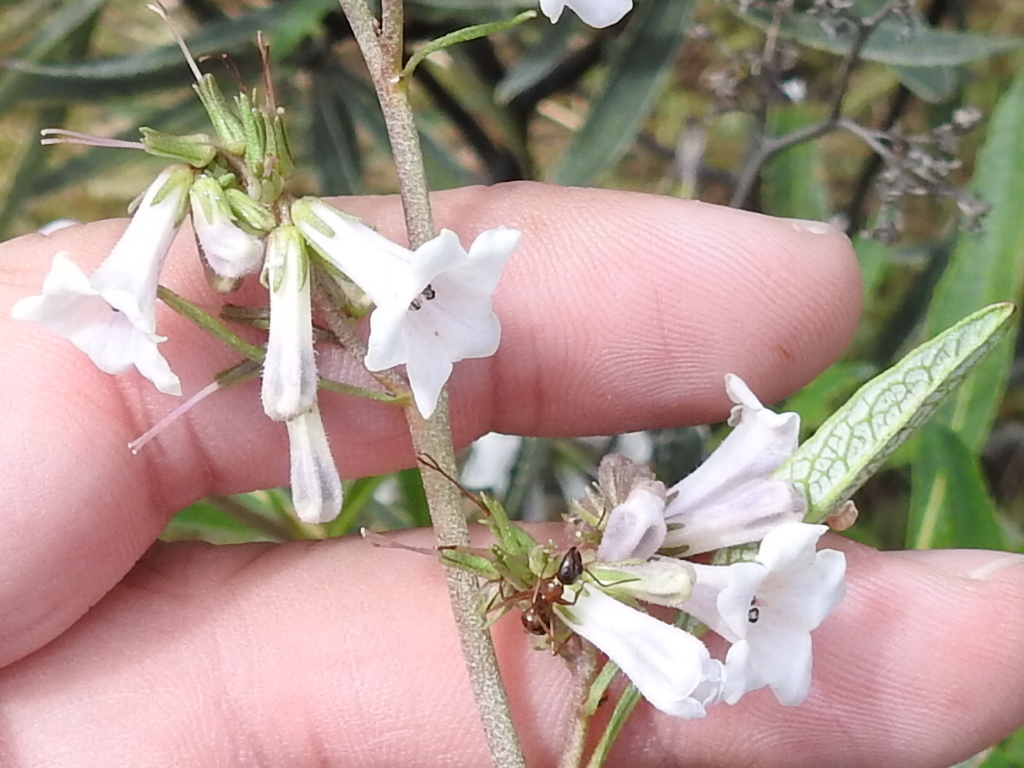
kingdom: Plantae
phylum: Tracheophyta
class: Magnoliopsida
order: Boraginales
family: Namaceae
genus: Eriodictyon
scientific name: Eriodictyon californicum
